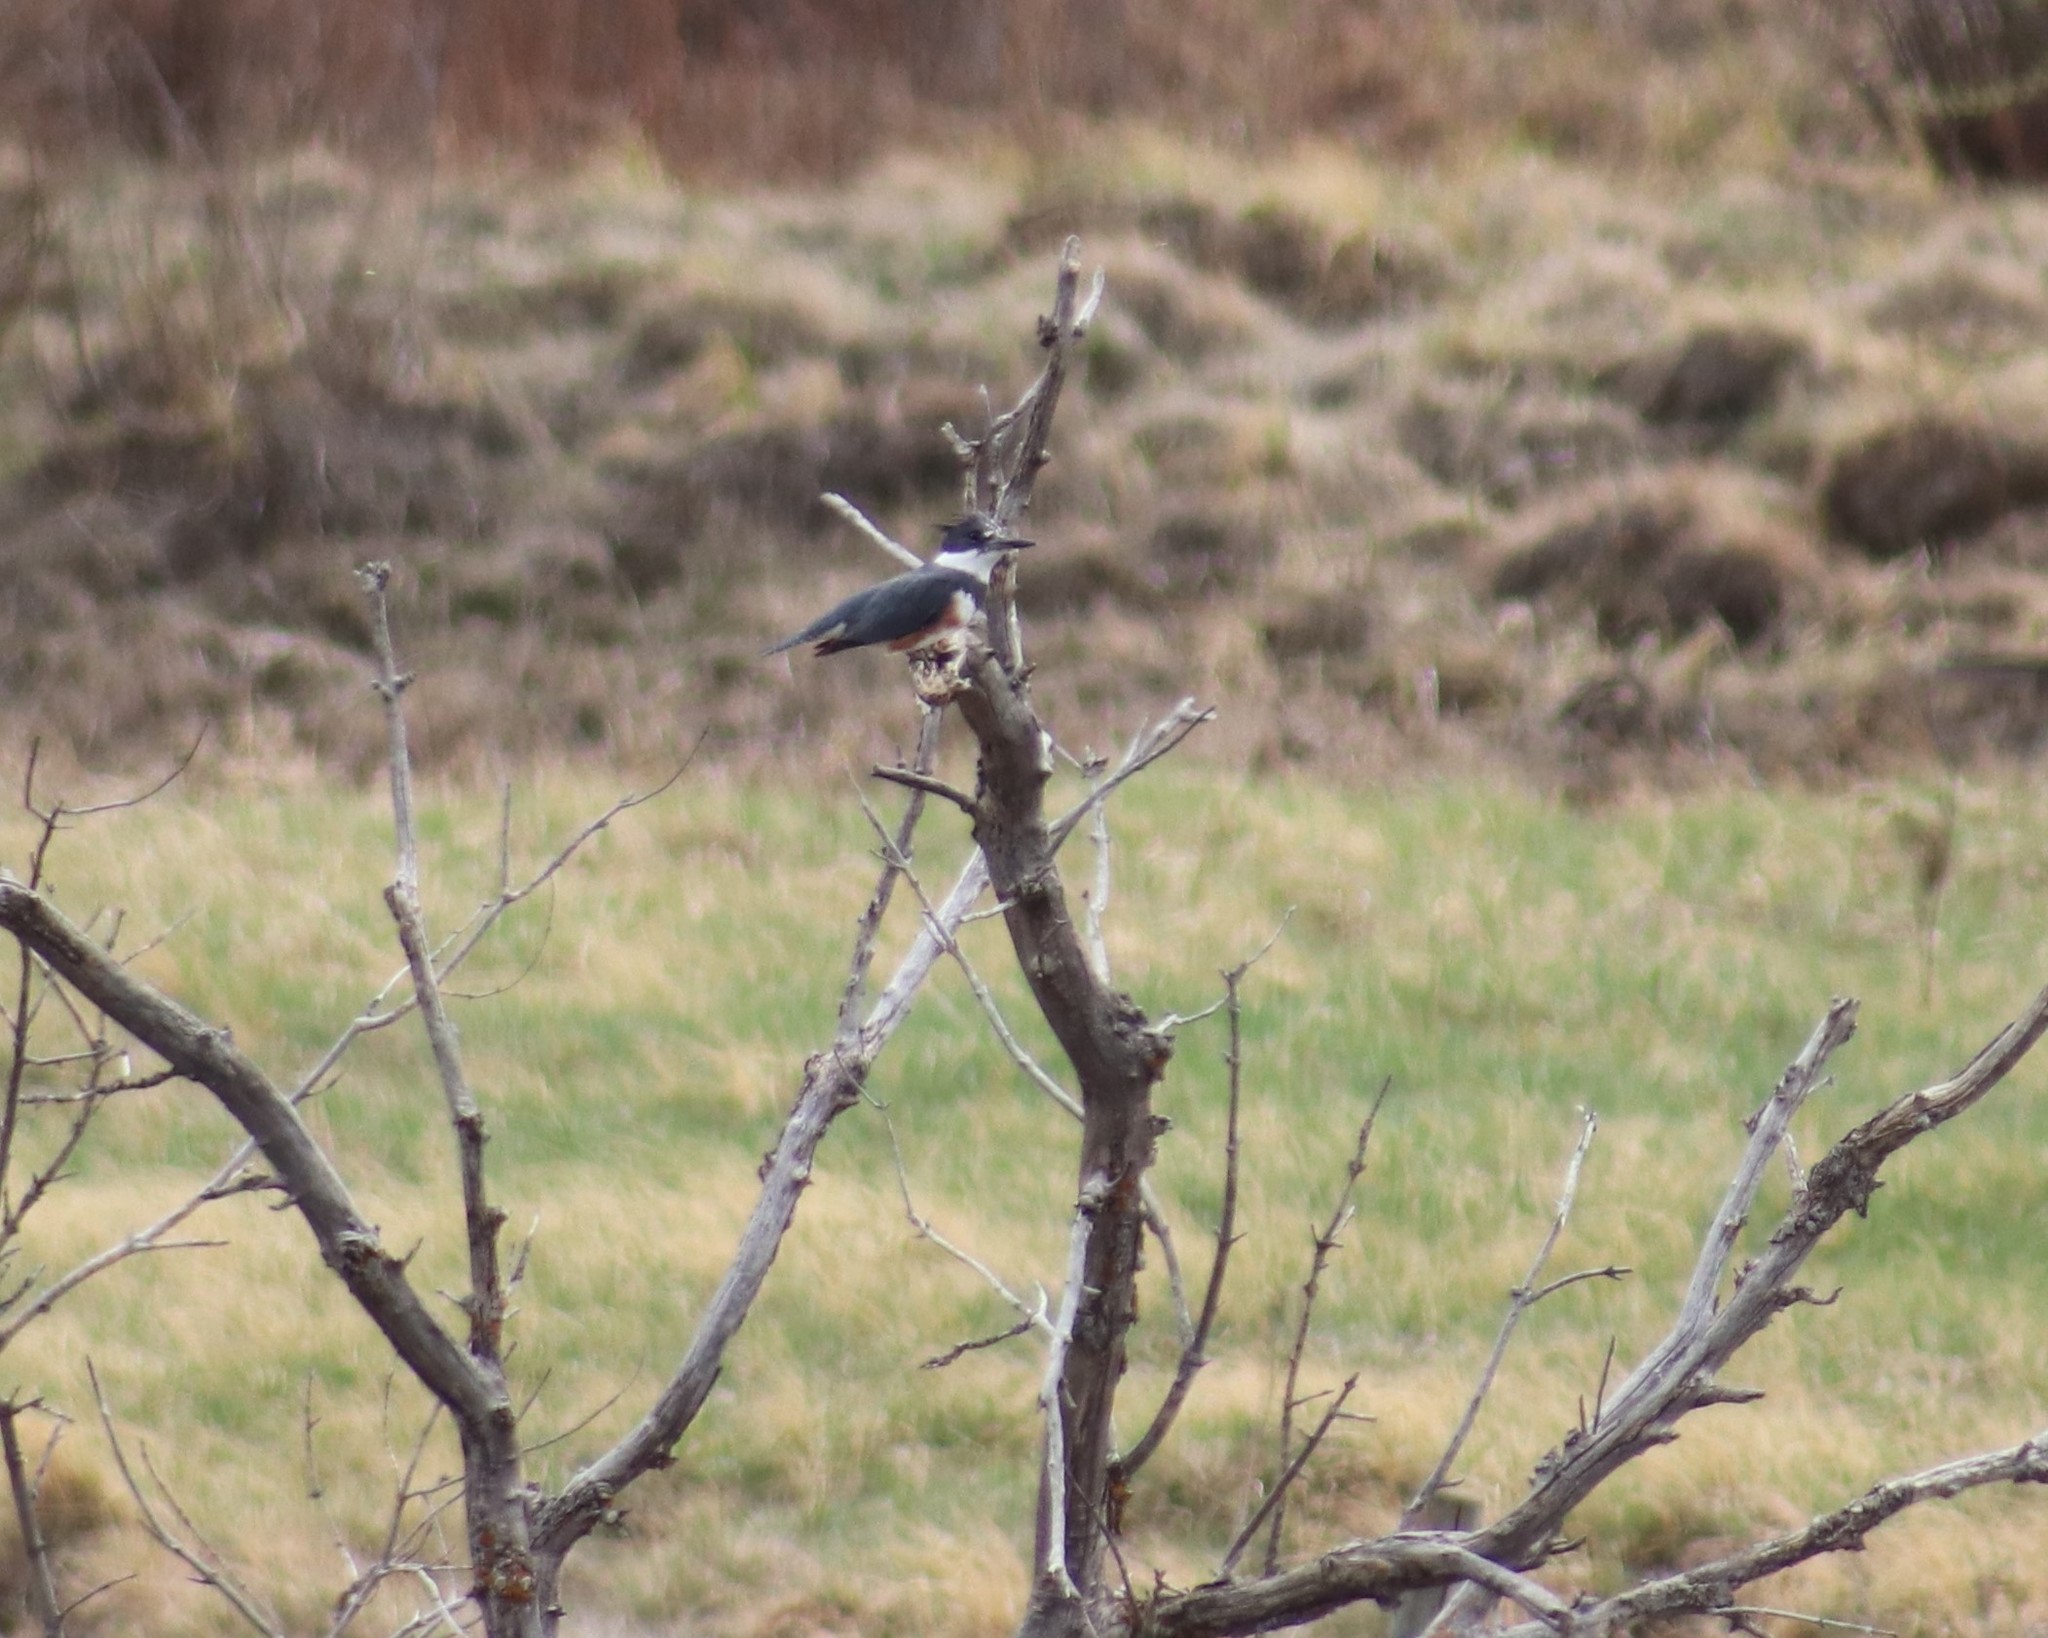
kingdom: Animalia
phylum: Chordata
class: Aves
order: Coraciiformes
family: Alcedinidae
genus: Megaceryle
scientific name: Megaceryle alcyon
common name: Belted kingfisher
